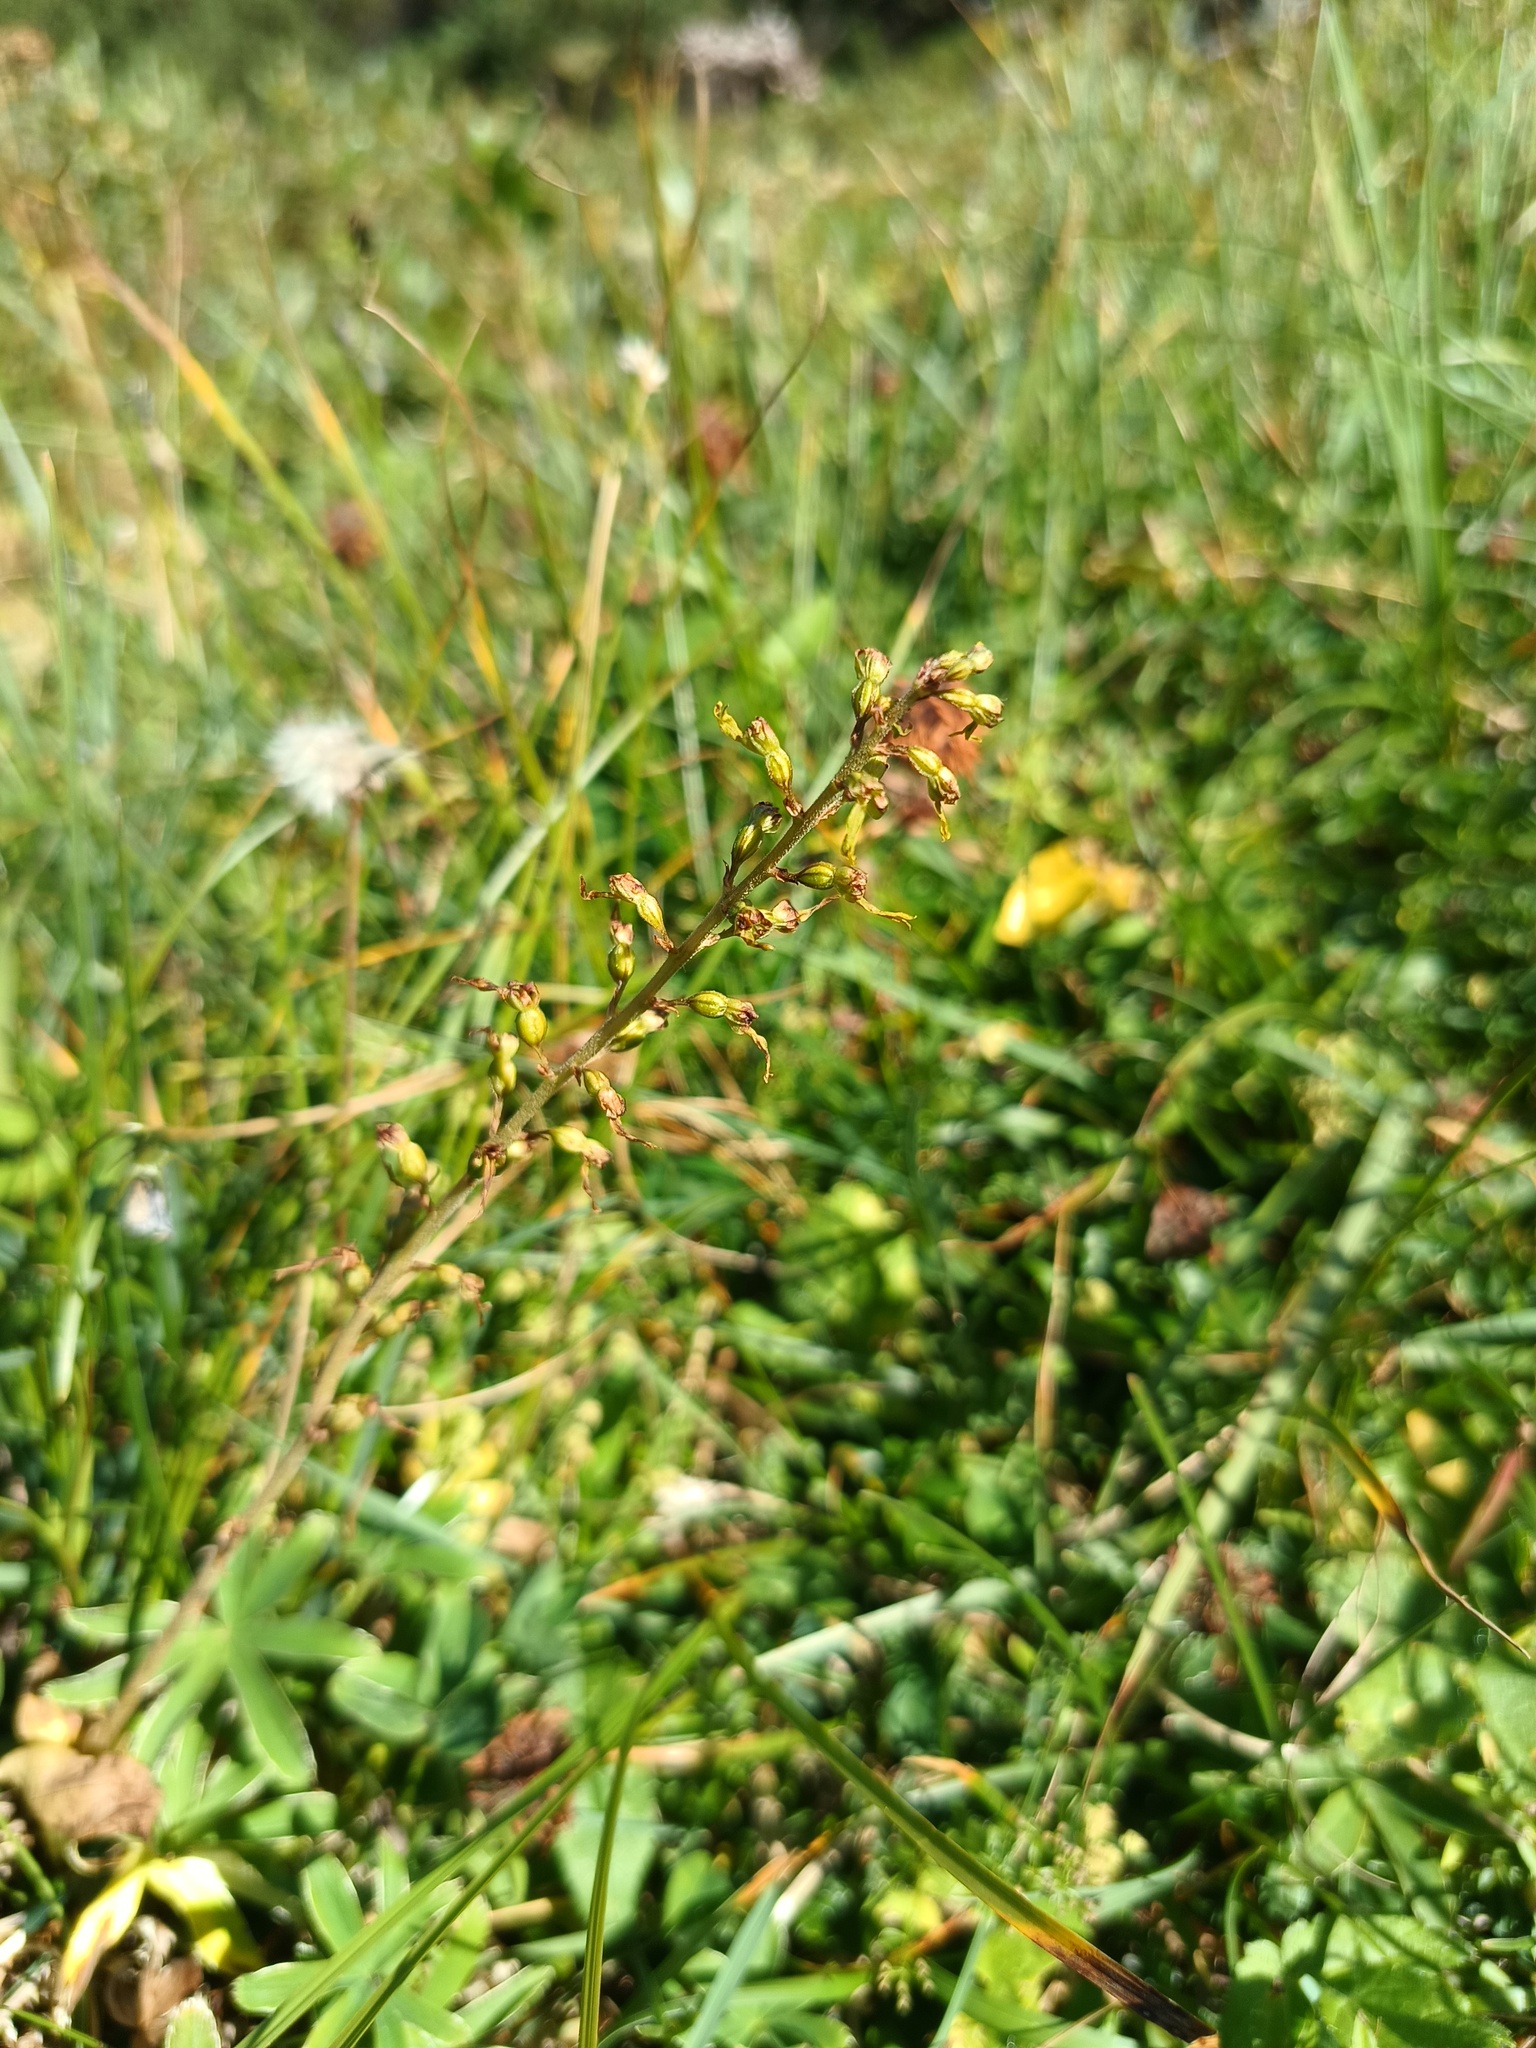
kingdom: Plantae
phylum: Tracheophyta
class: Liliopsida
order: Asparagales
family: Orchidaceae
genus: Neottia
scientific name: Neottia ovata
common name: Common twayblade
